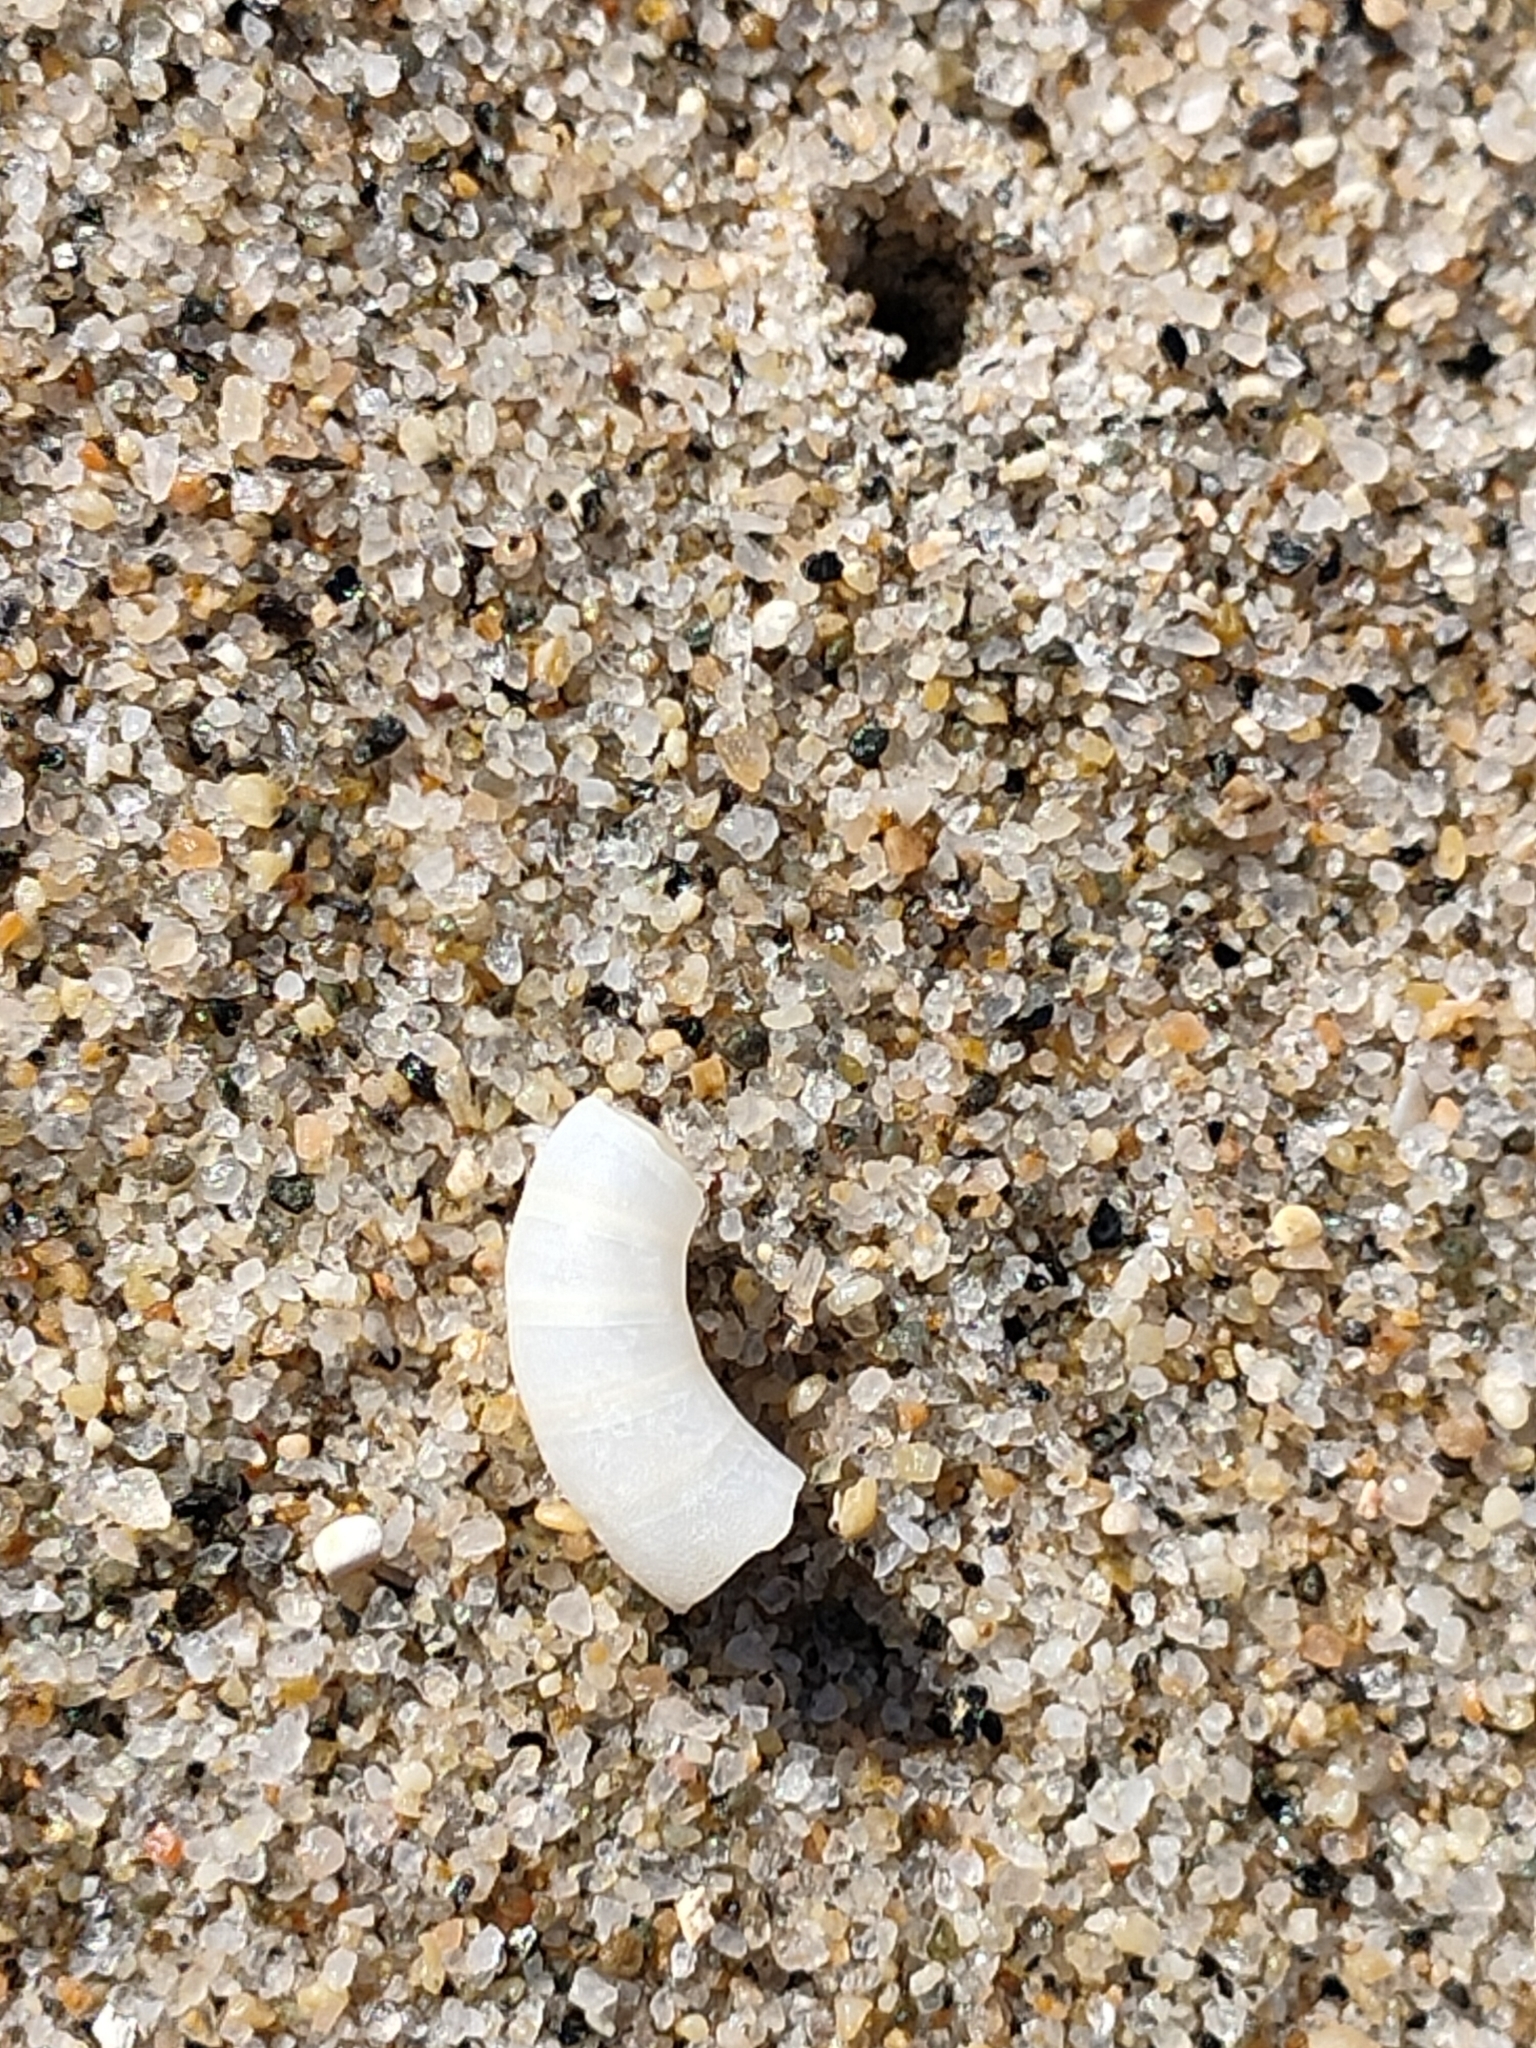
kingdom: Animalia
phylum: Mollusca
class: Cephalopoda
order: Spirulida
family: Spirulidae
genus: Spirula
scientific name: Spirula spirula
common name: Ram's horn squid
